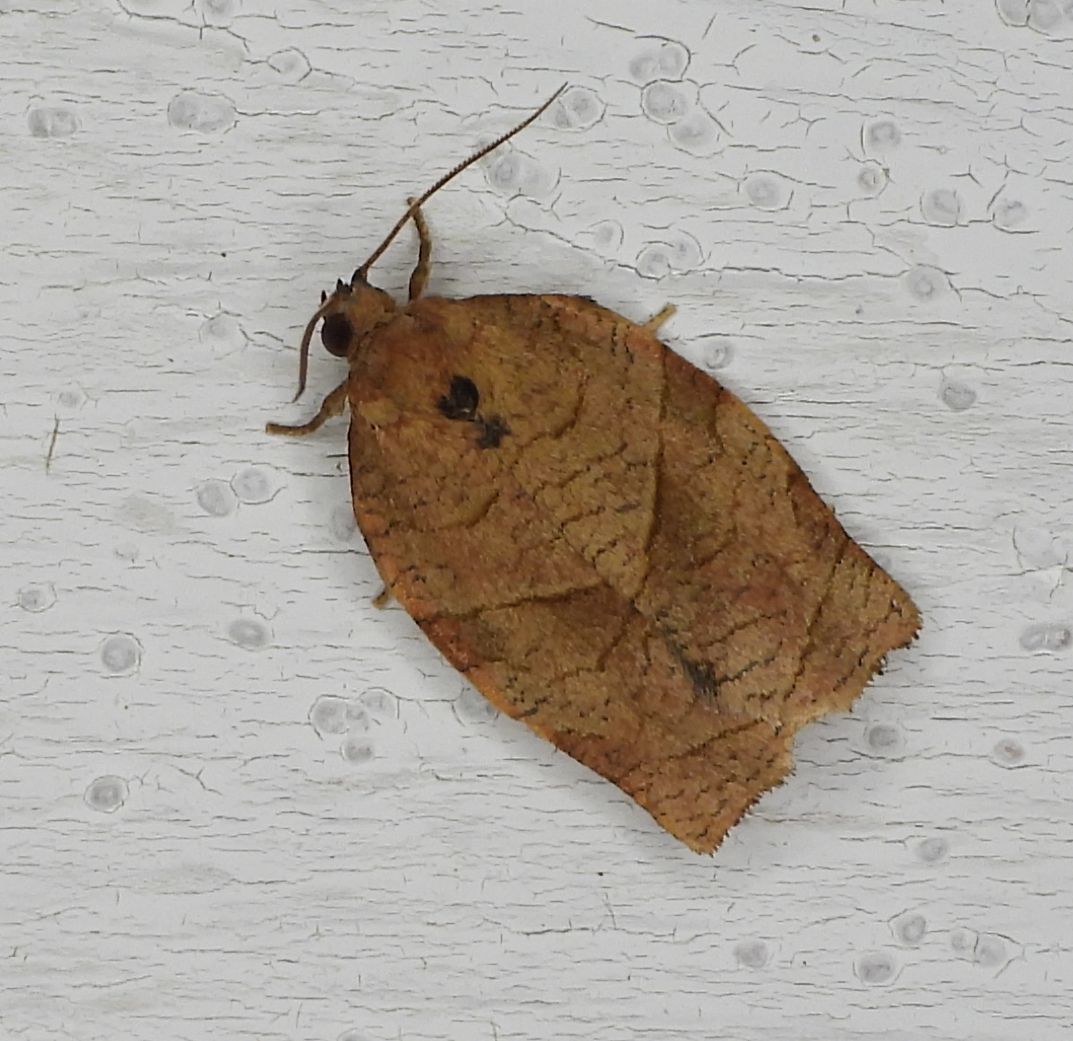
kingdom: Animalia
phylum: Arthropoda
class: Insecta
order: Lepidoptera
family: Tortricidae
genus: Choristoneura
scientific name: Choristoneura rosaceana
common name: Oblique-banded leafroller moth
